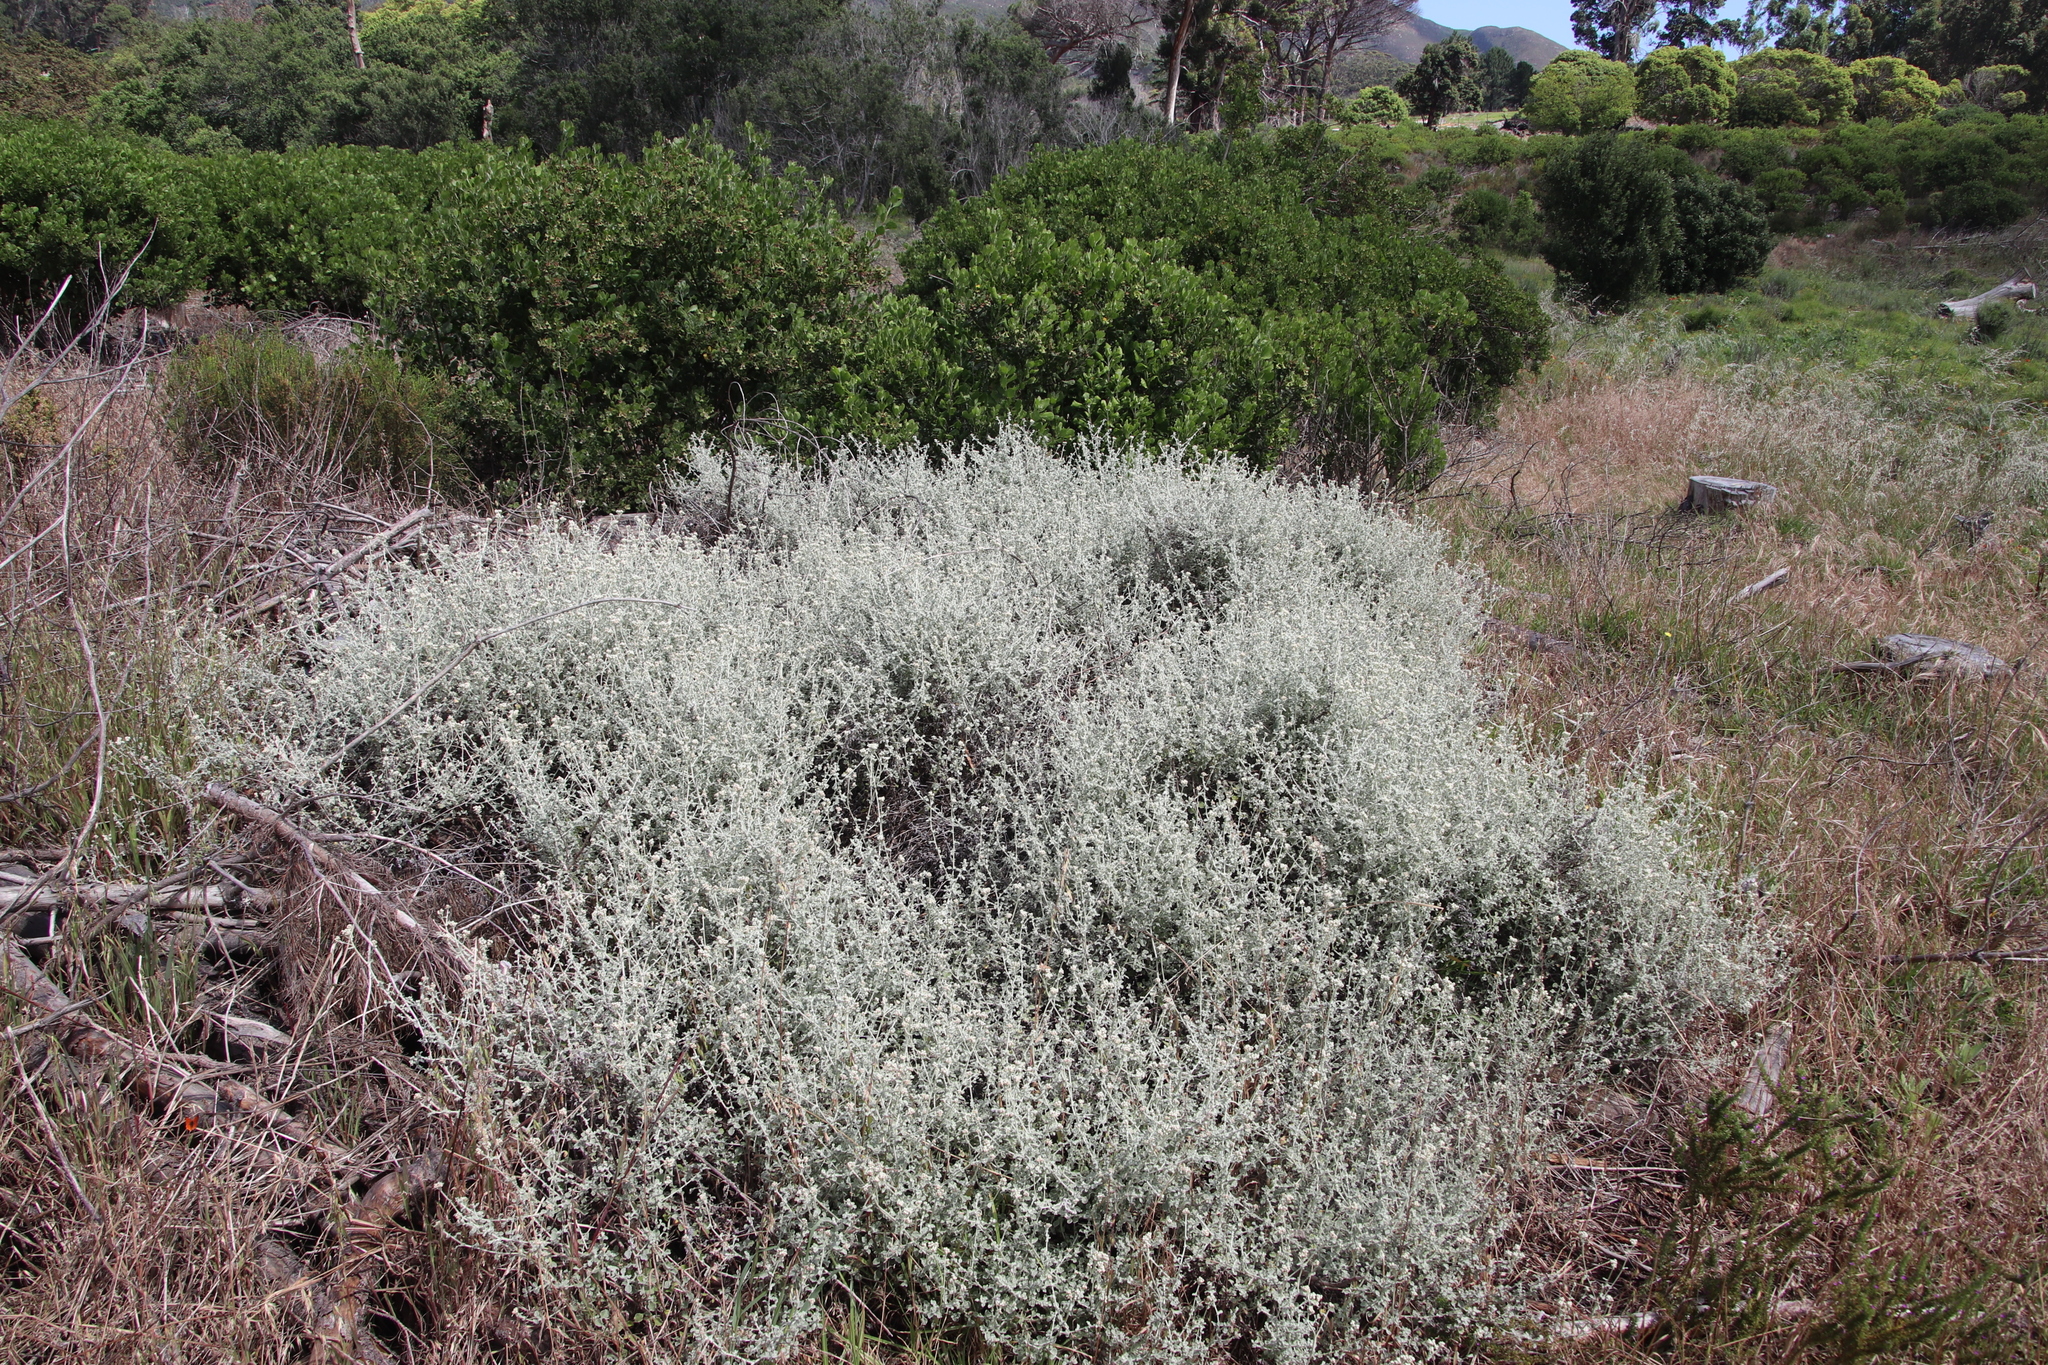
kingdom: Plantae
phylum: Tracheophyta
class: Magnoliopsida
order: Asterales
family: Asteraceae
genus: Helichrysum
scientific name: Helichrysum patulum
